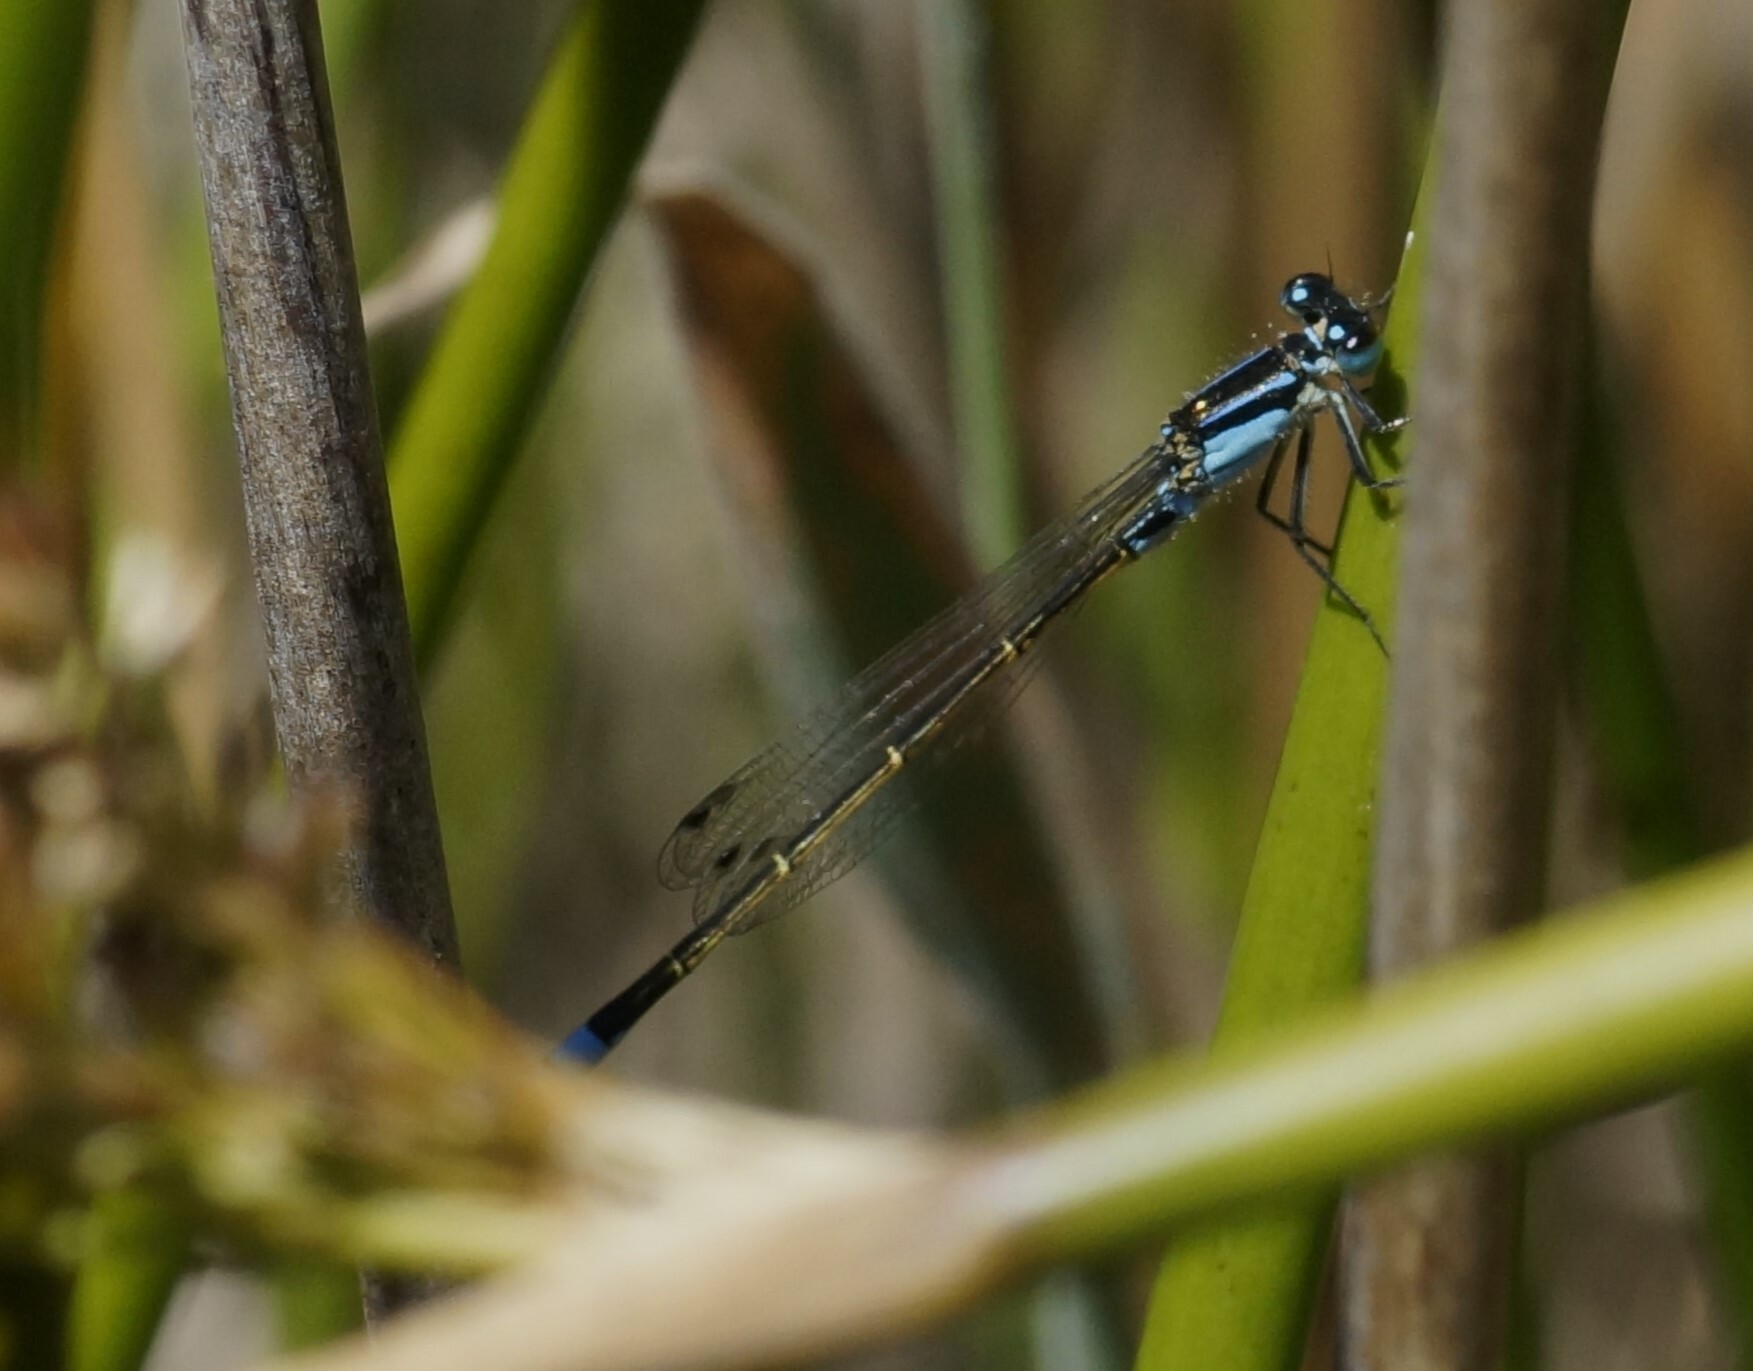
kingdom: Animalia
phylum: Arthropoda
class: Insecta
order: Odonata
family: Coenagrionidae
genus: Ischnura
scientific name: Ischnura heterosticta
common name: Common bluetail
